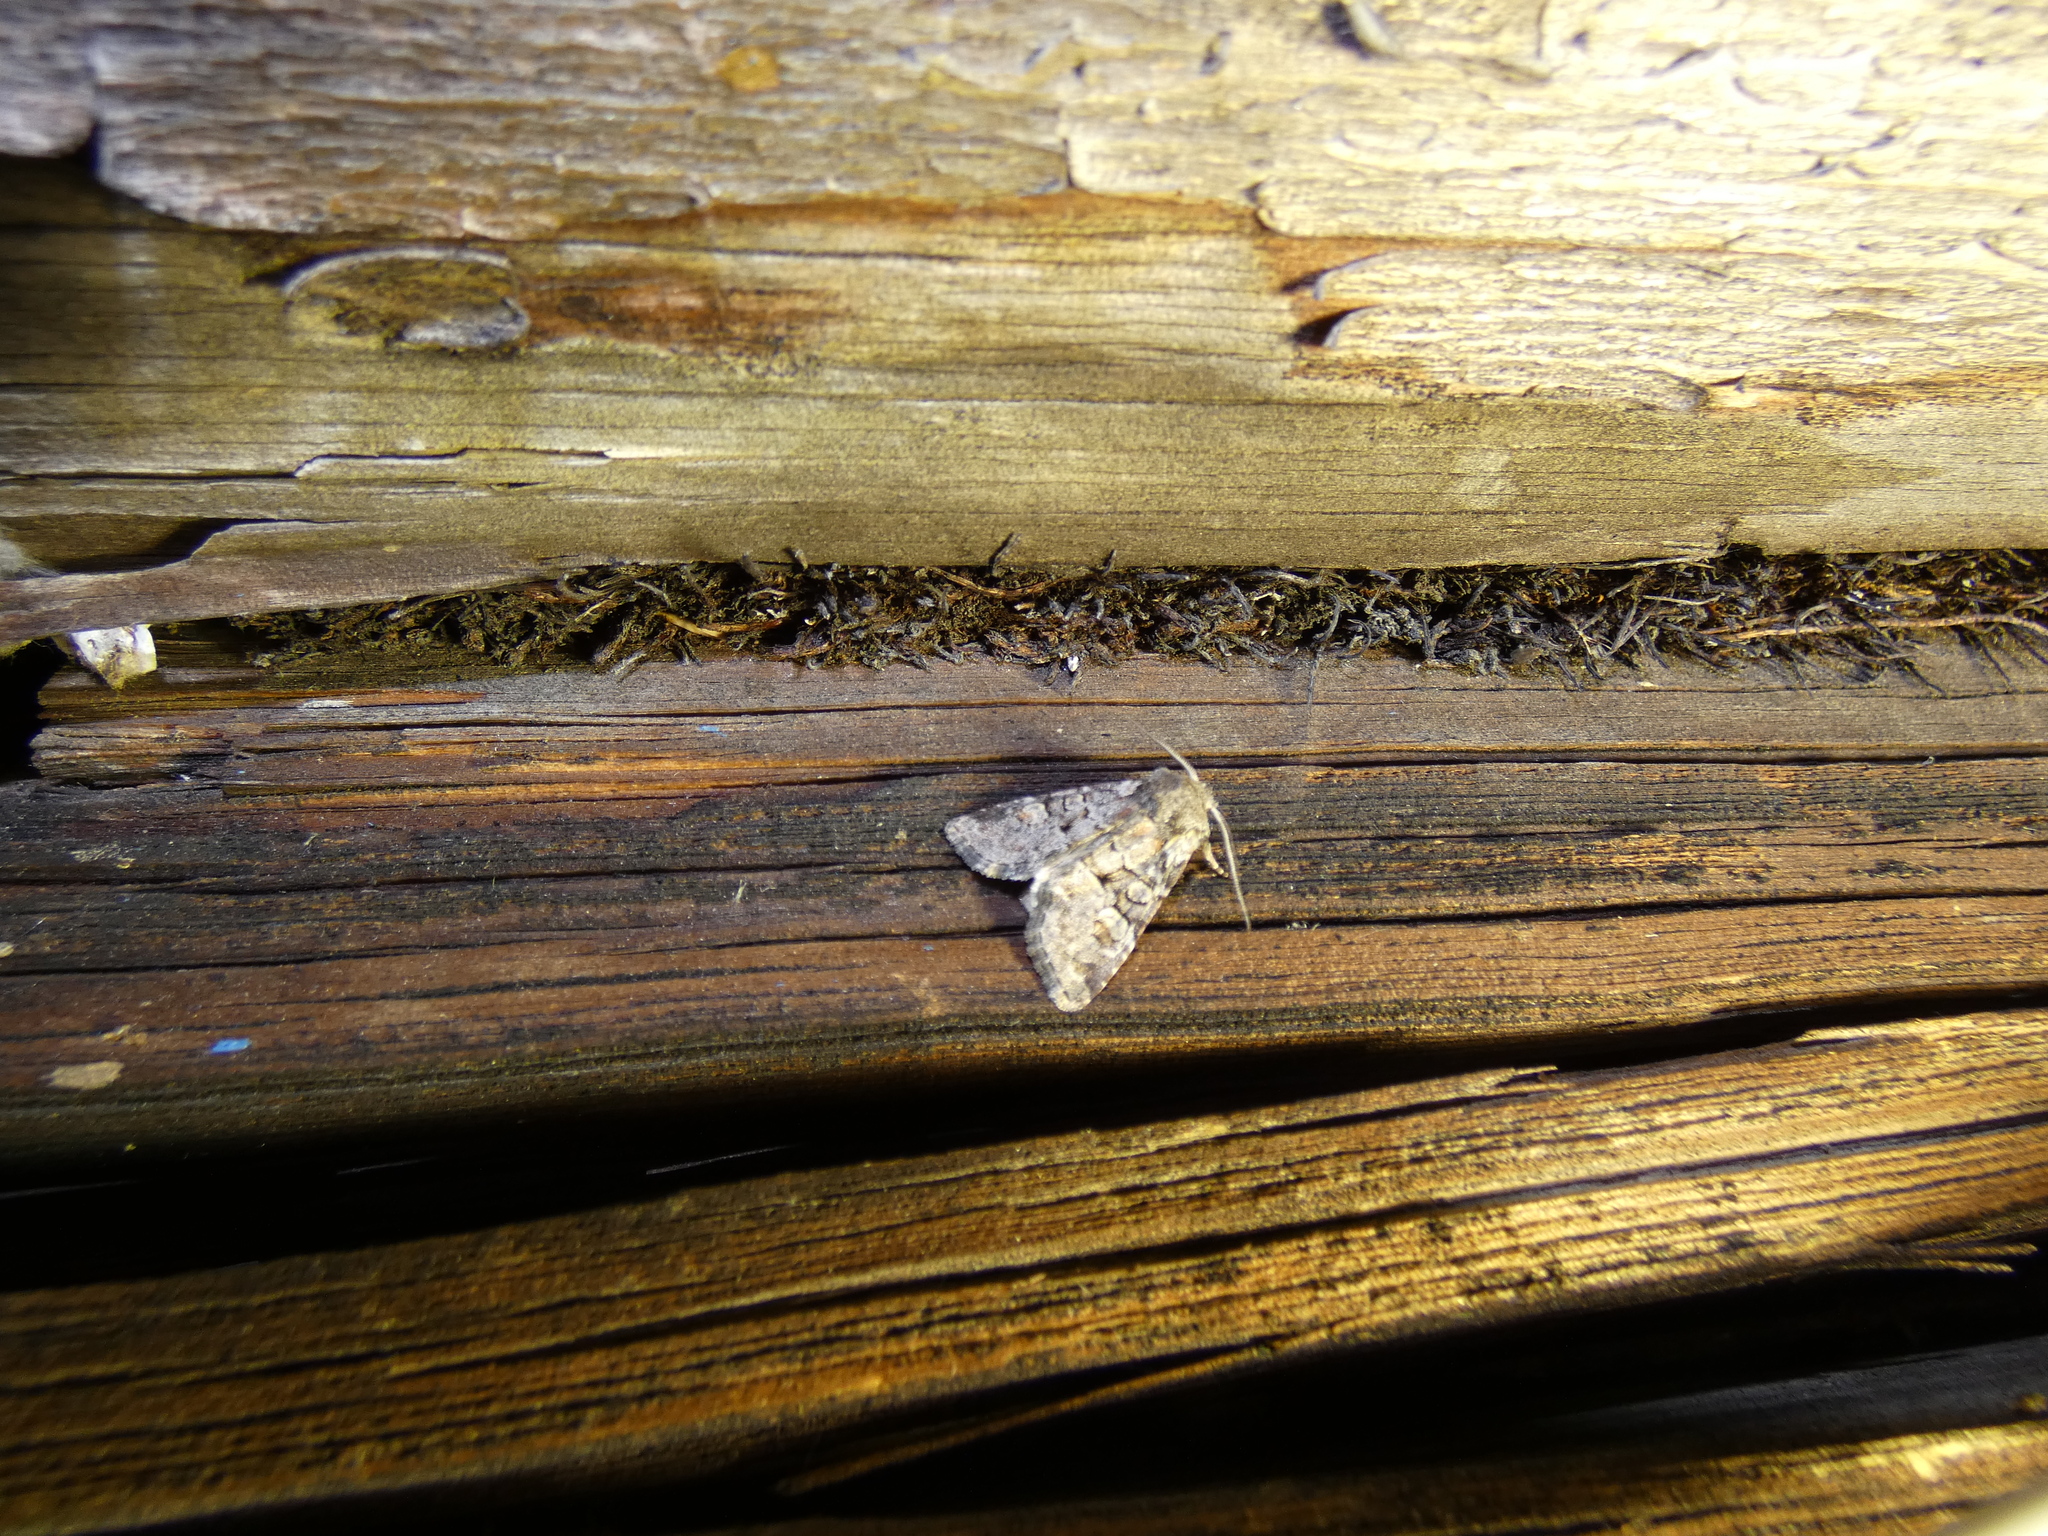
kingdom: Animalia
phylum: Arthropoda
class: Insecta
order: Lepidoptera
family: Noctuidae
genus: Brachylomia
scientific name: Brachylomia viminalis
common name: Minor shoulder-knot
